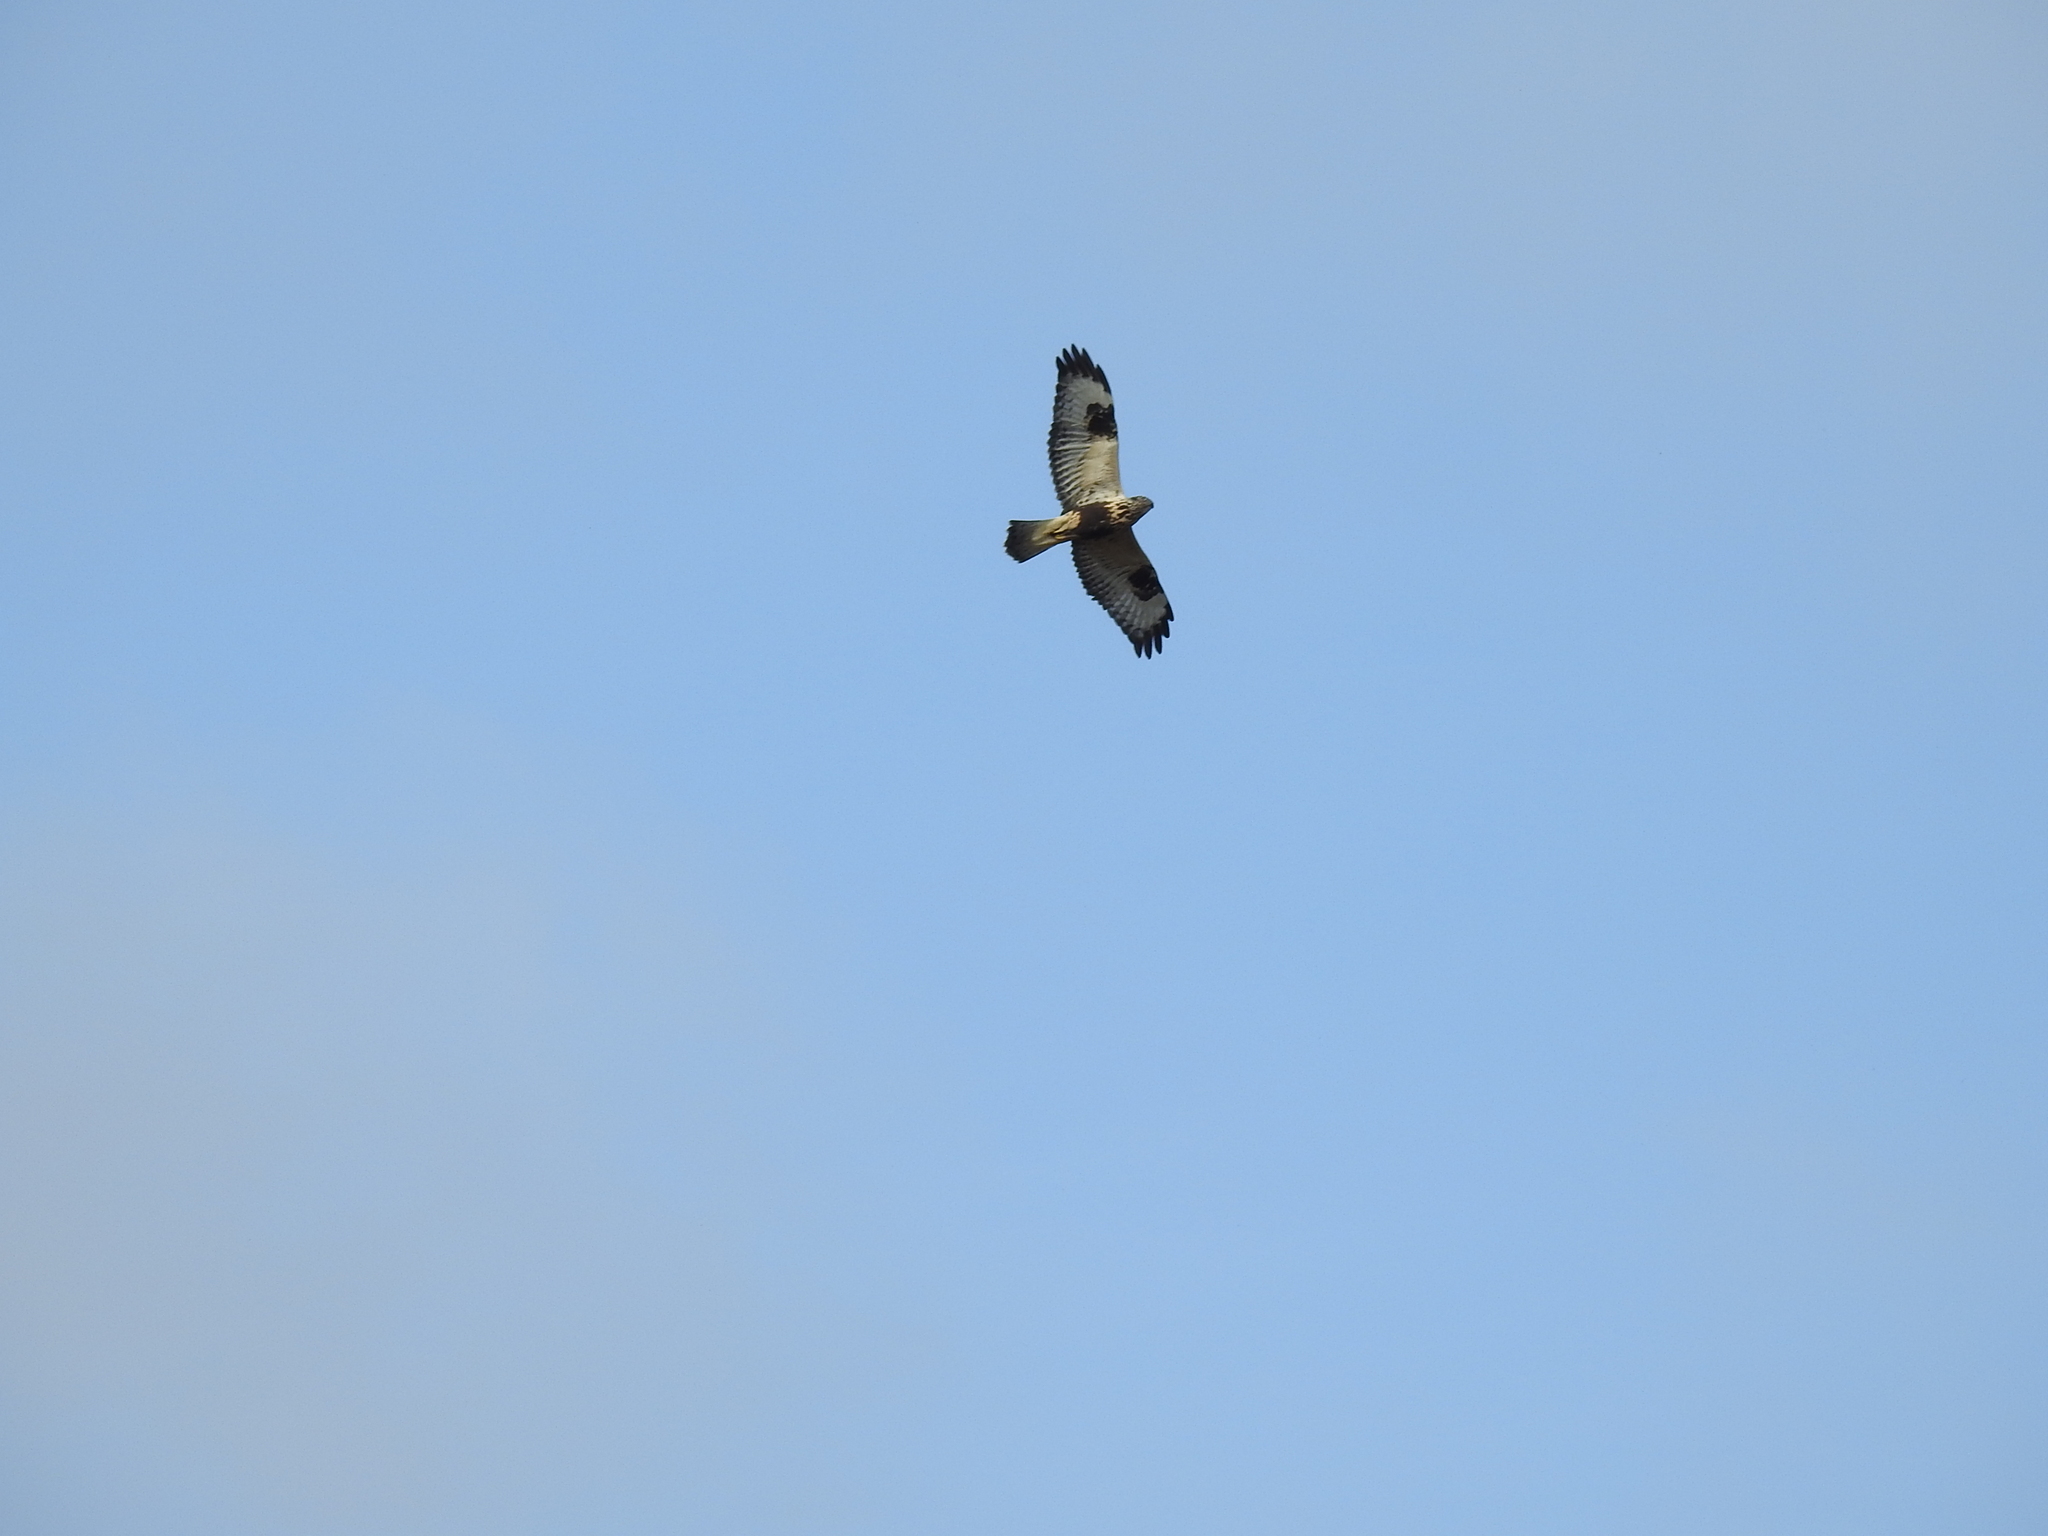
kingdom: Animalia
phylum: Chordata
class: Aves
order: Accipitriformes
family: Accipitridae
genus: Buteo
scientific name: Buteo lagopus
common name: Rough-legged buzzard
